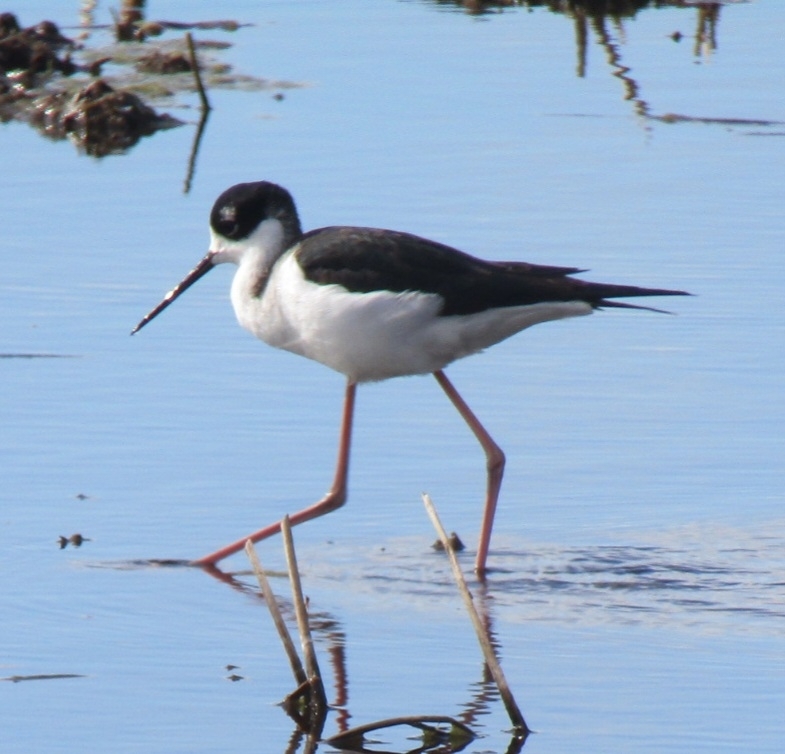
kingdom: Animalia
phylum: Chordata
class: Aves
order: Charadriiformes
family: Recurvirostridae
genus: Himantopus
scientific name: Himantopus mexicanus
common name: Black-necked stilt
